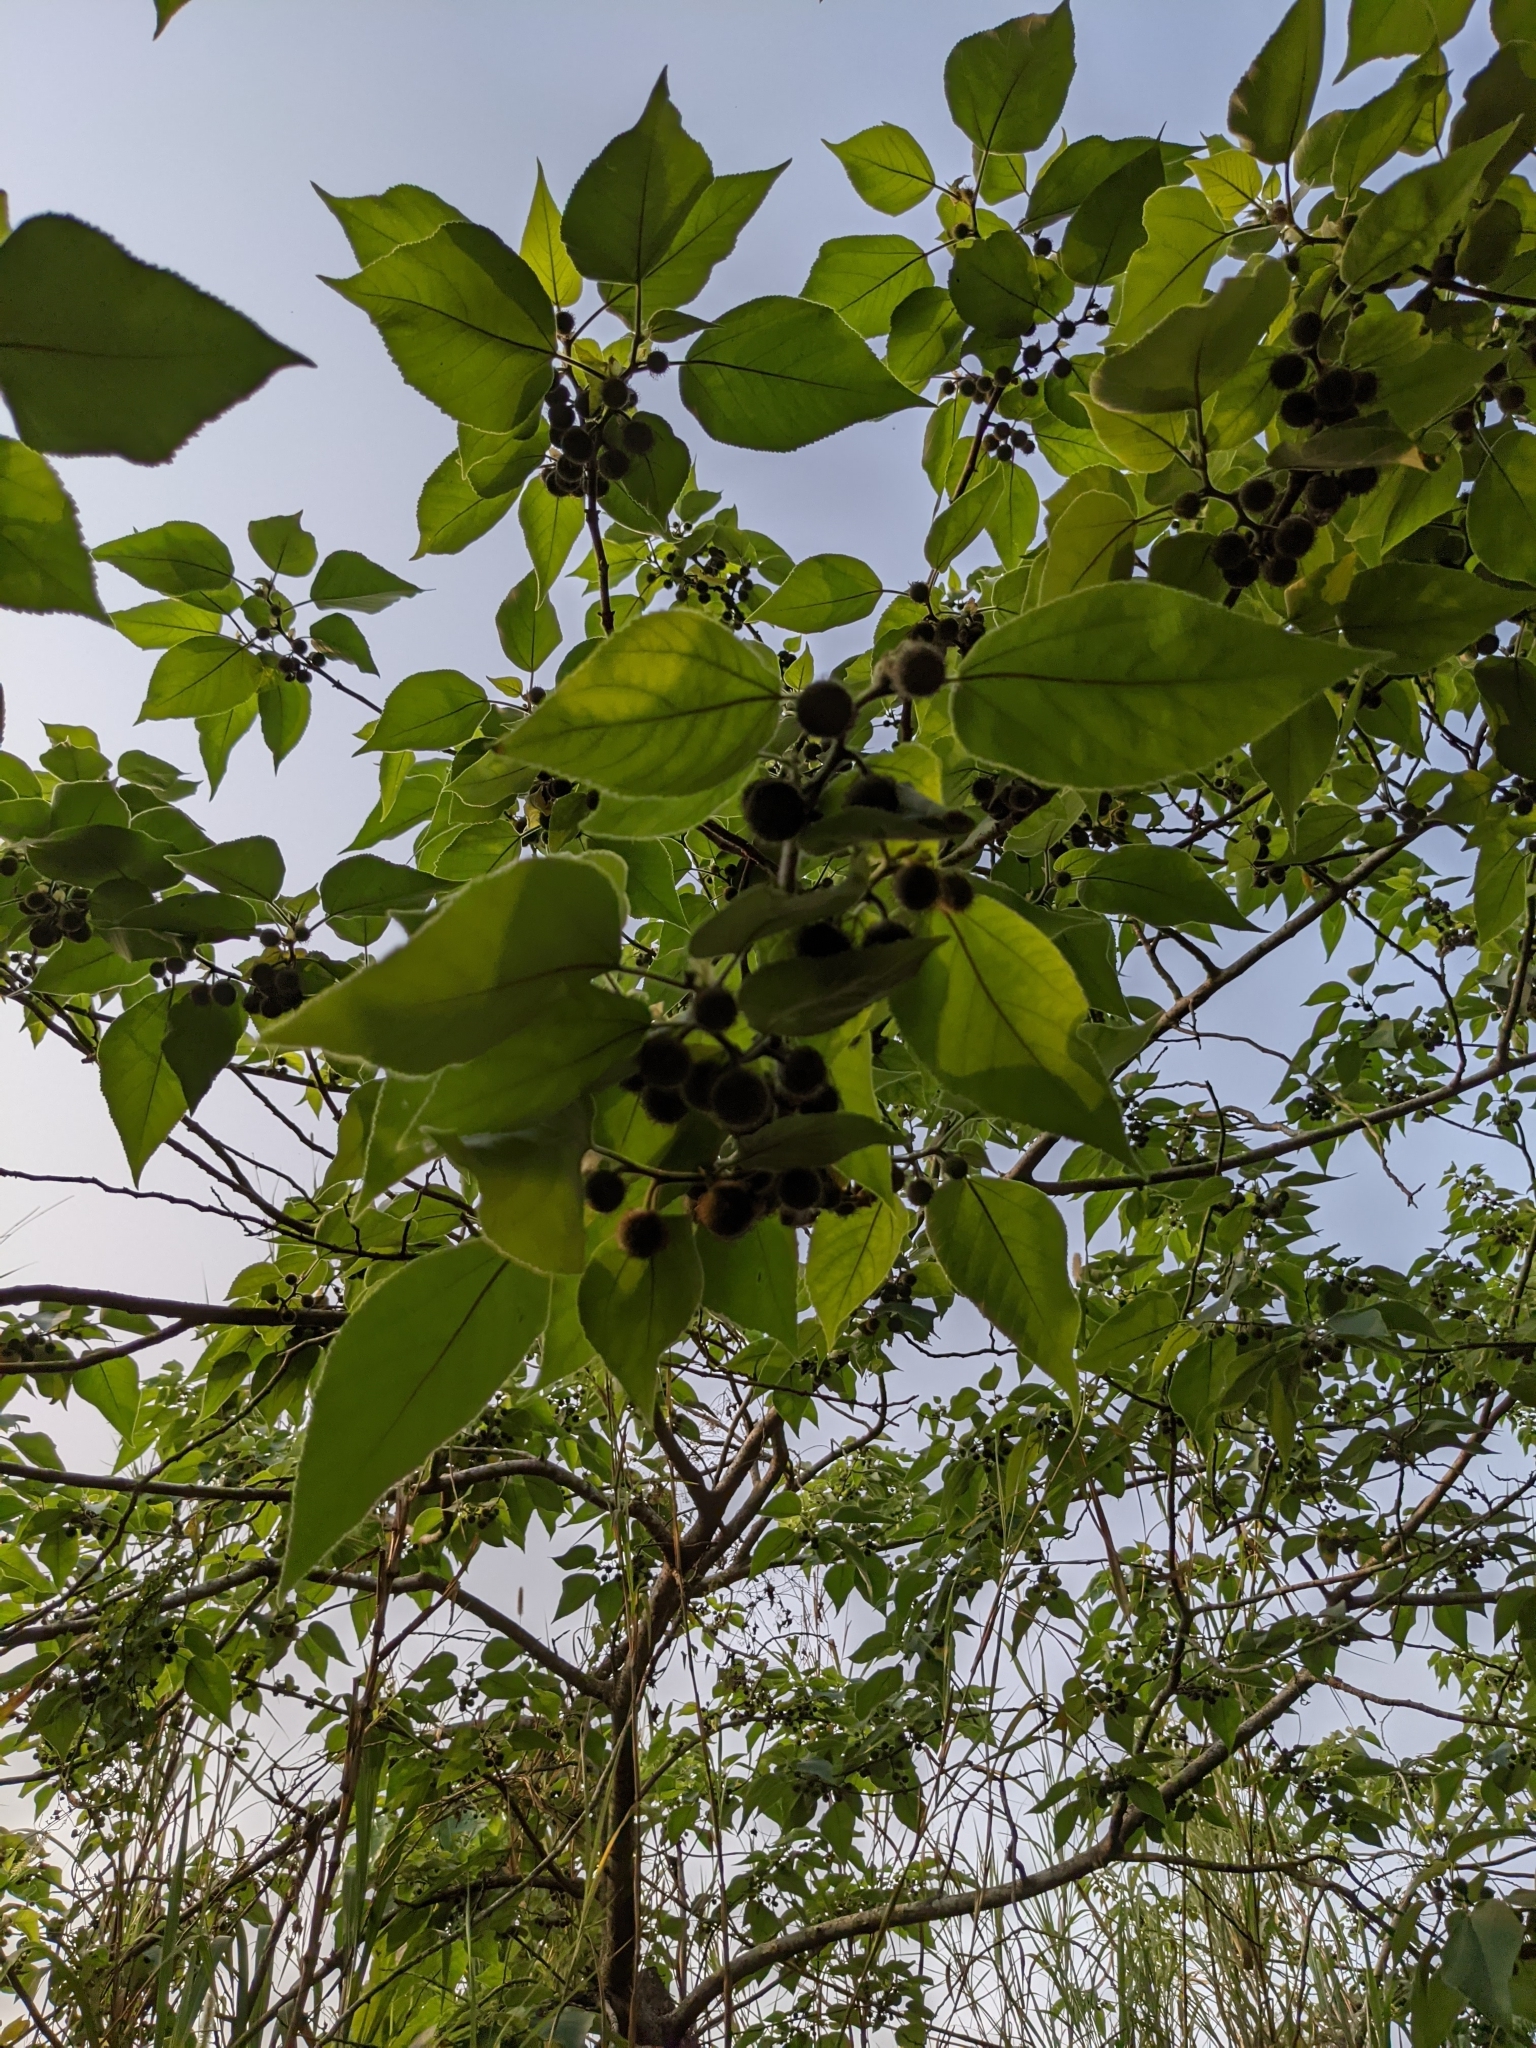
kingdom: Plantae
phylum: Tracheophyta
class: Magnoliopsida
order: Rosales
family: Moraceae
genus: Broussonetia
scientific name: Broussonetia papyrifera
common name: Paper mulberry
